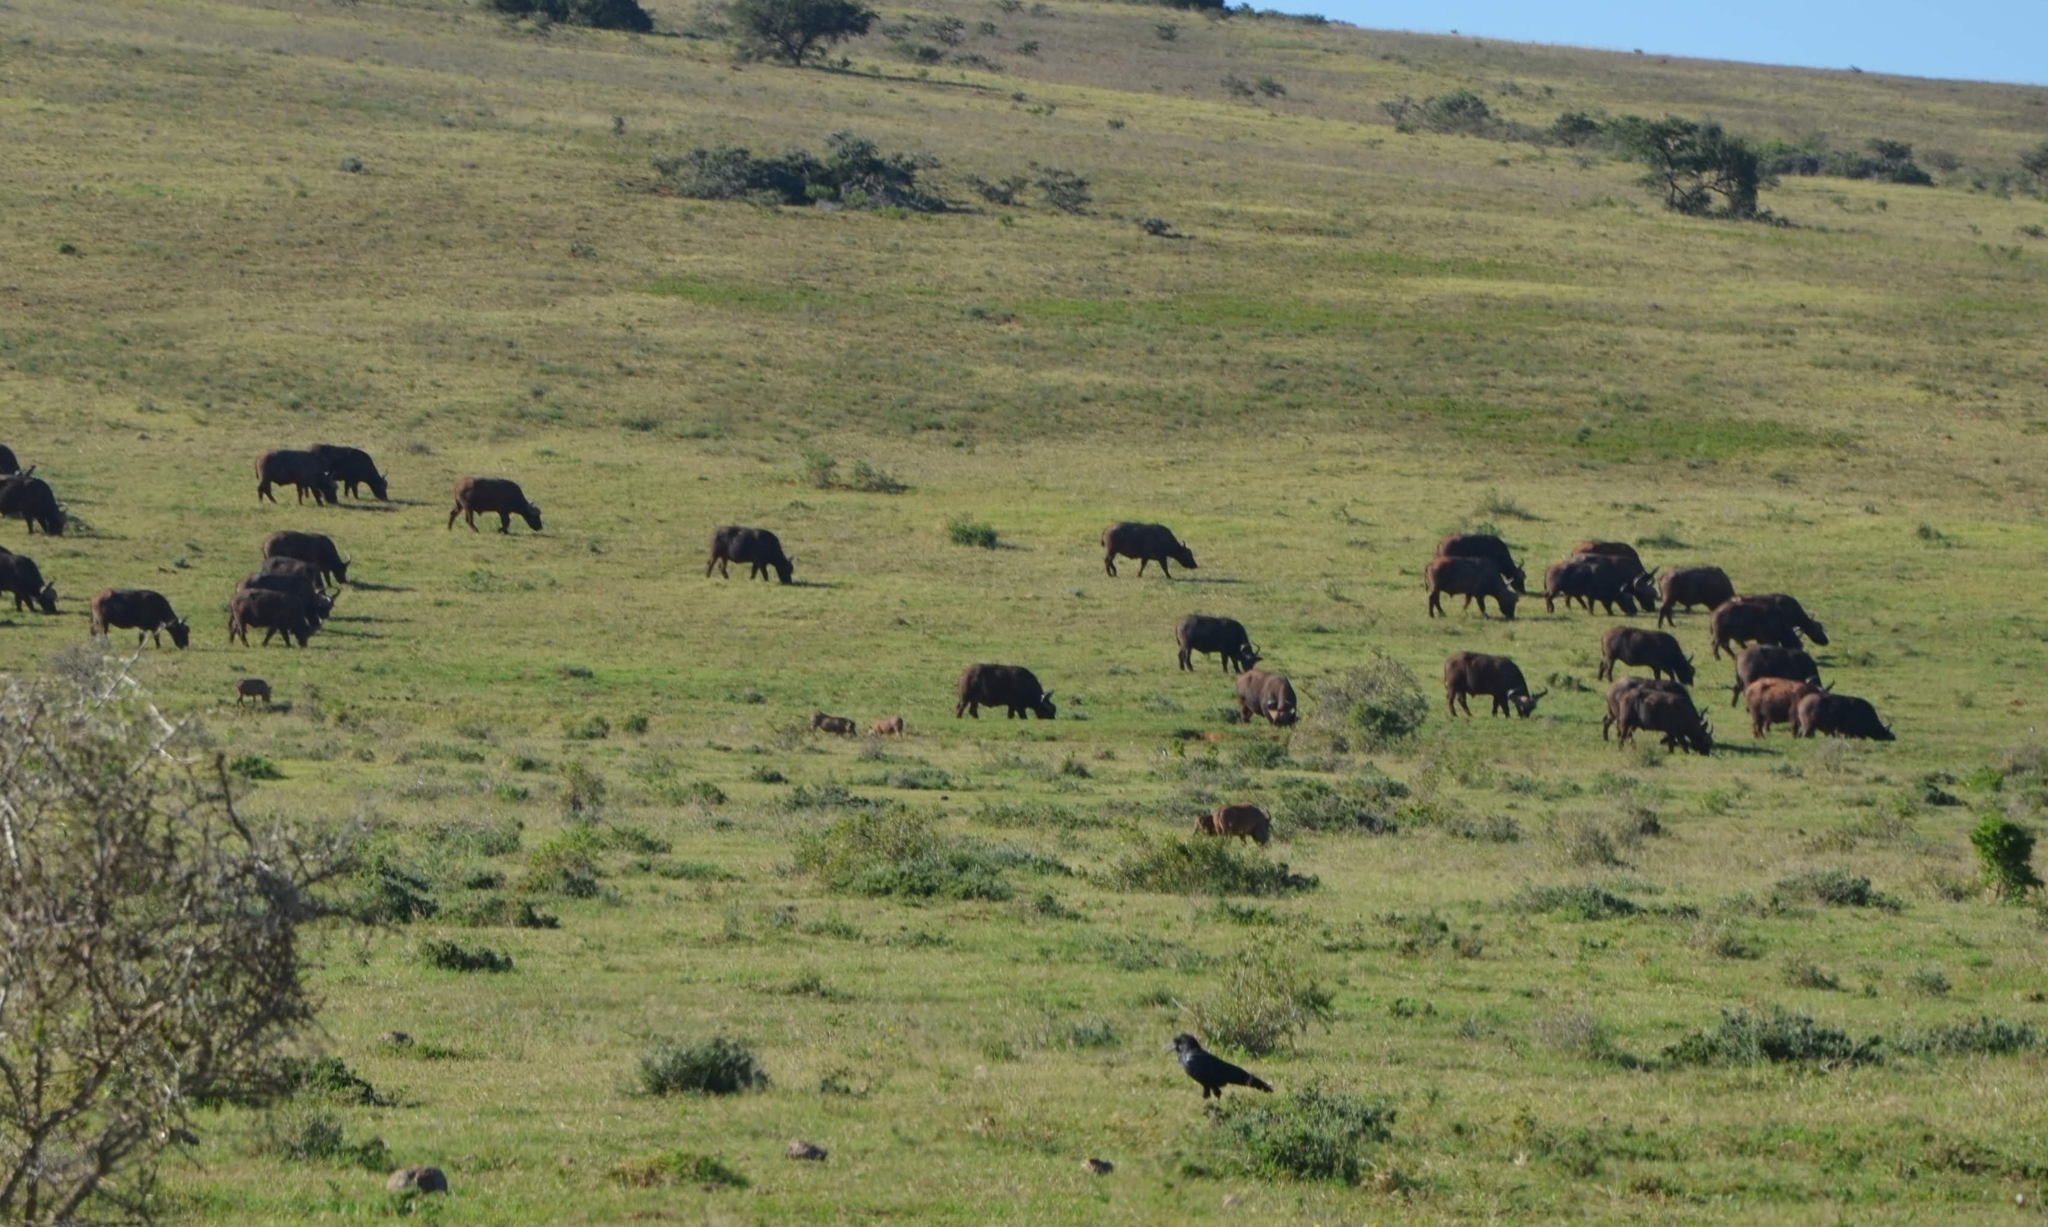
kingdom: Animalia
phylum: Chordata
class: Mammalia
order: Artiodactyla
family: Bovidae
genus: Syncerus
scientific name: Syncerus caffer
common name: African buffalo
